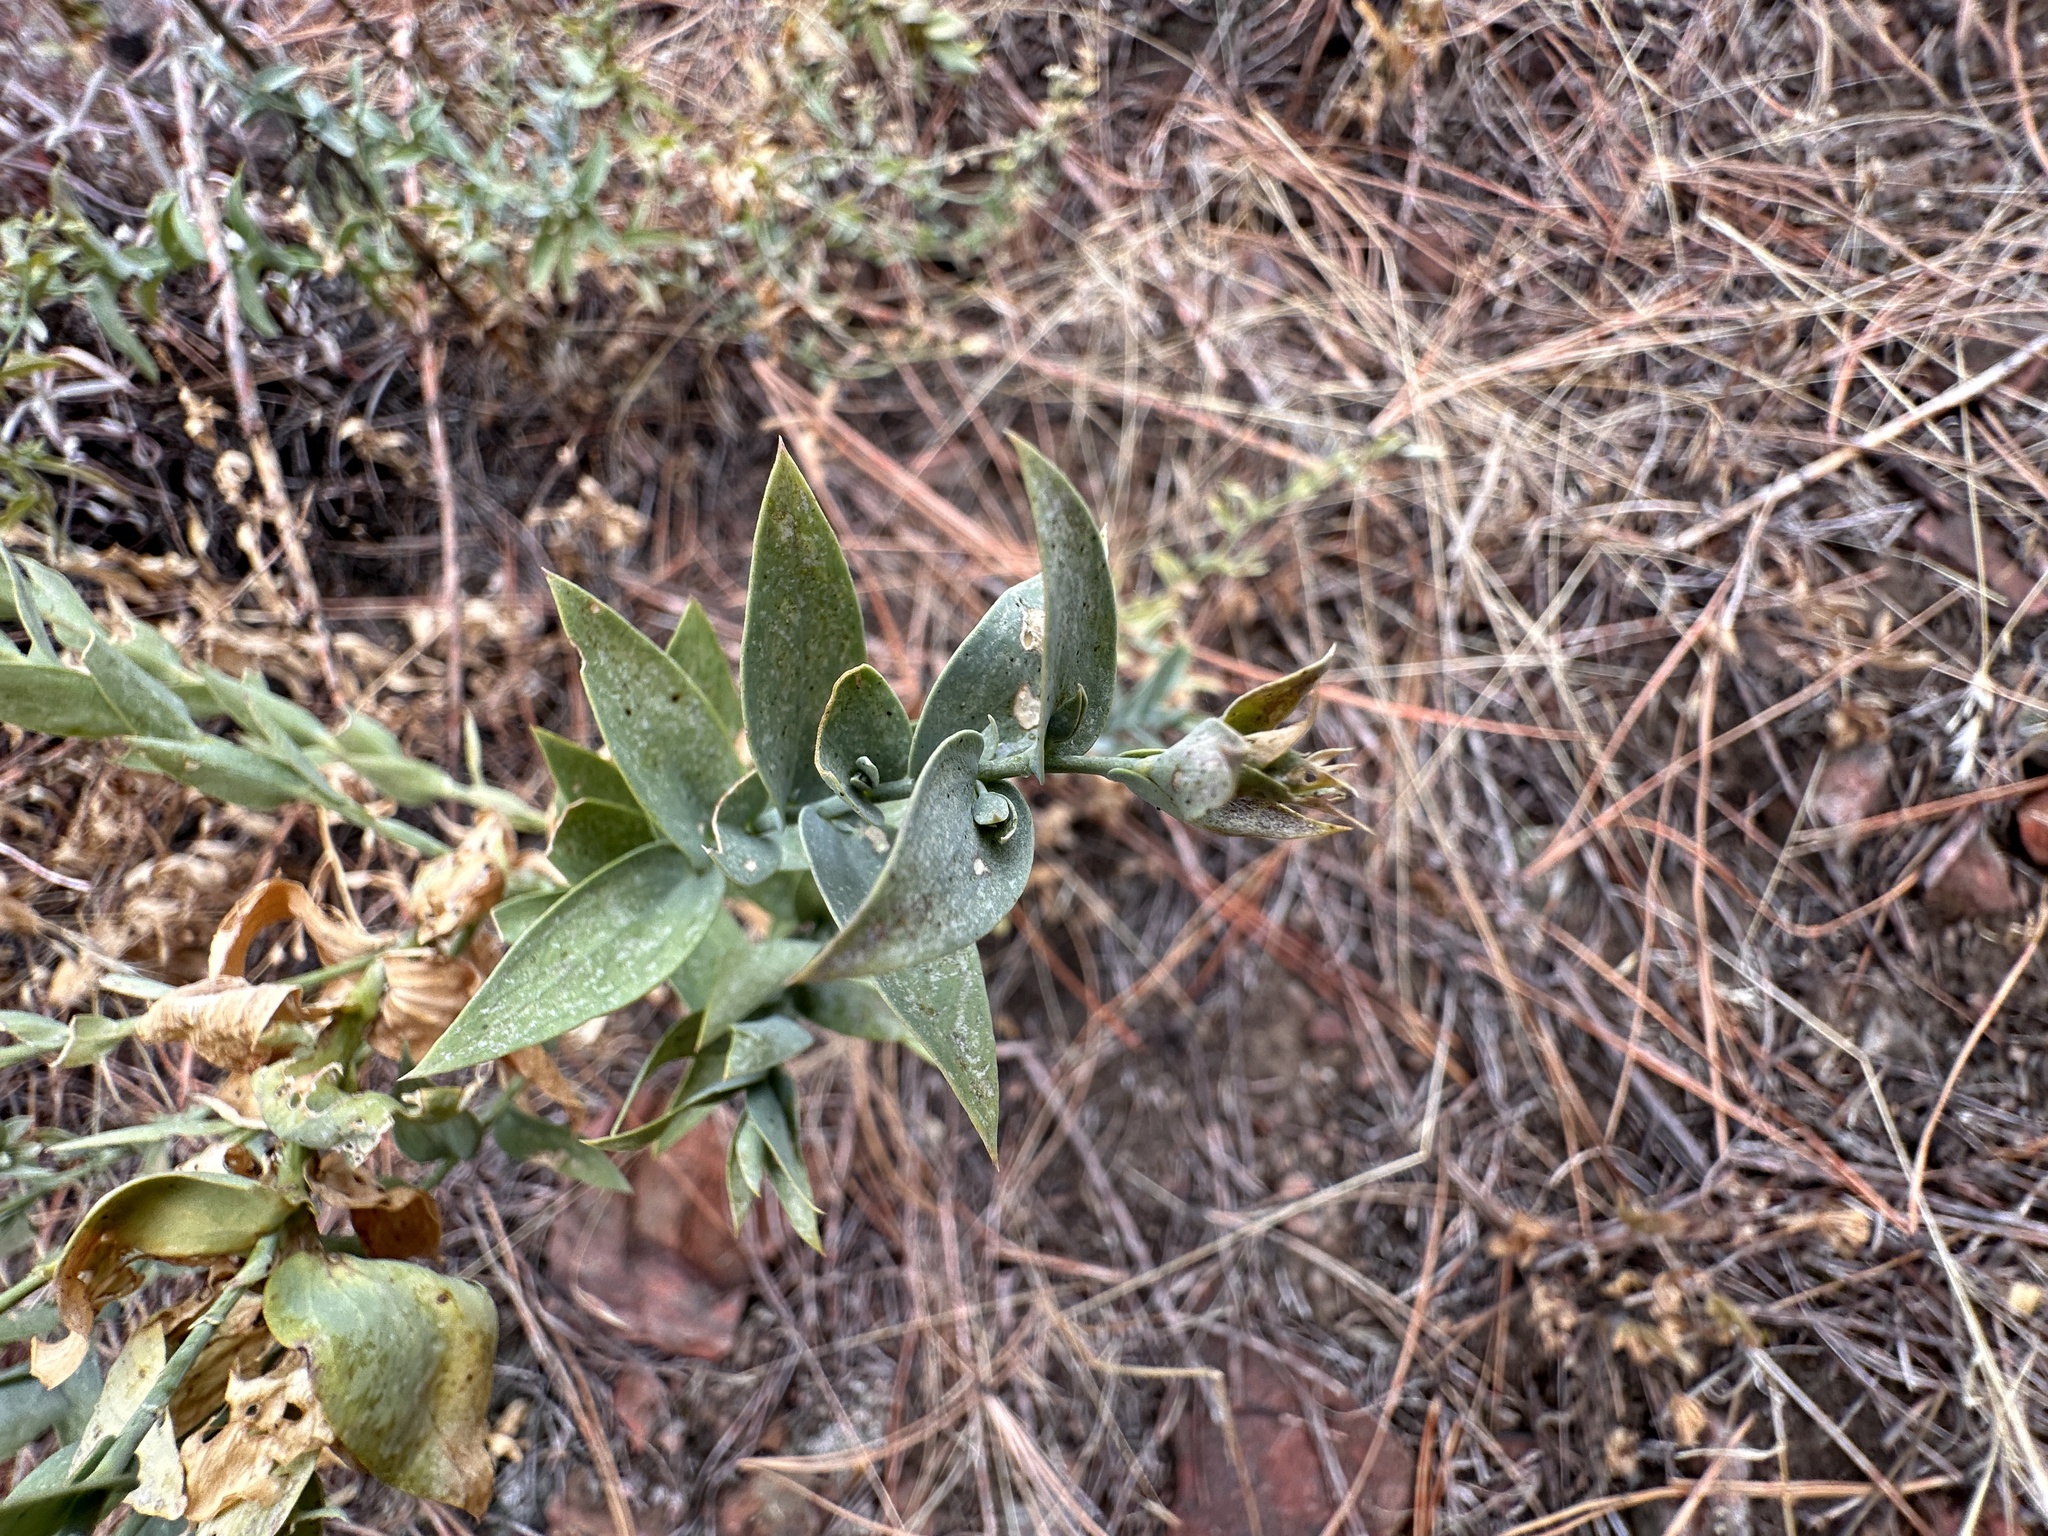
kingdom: Plantae
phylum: Tracheophyta
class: Magnoliopsida
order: Lamiales
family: Plantaginaceae
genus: Linaria
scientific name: Linaria dalmatica
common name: Dalmatian toadflax
